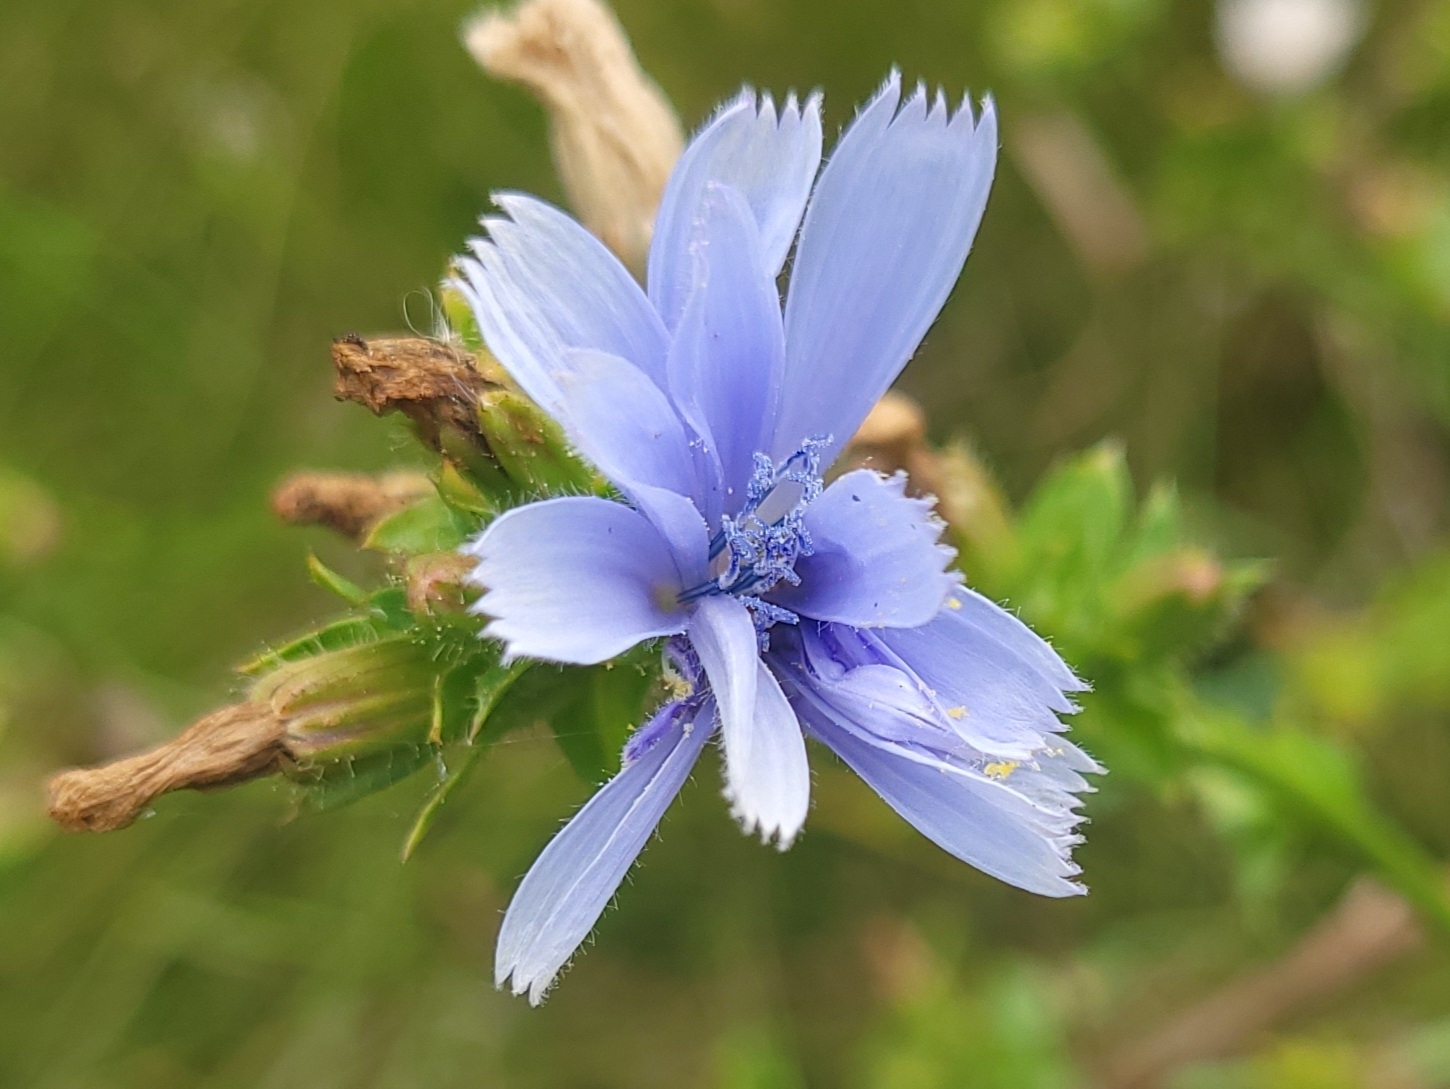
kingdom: Plantae
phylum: Tracheophyta
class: Magnoliopsida
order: Asterales
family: Asteraceae
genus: Cichorium
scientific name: Cichorium intybus
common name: Chicory
